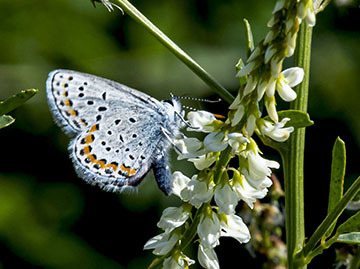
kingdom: Animalia
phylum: Arthropoda
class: Insecta
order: Lepidoptera
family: Lycaenidae
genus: Lycaeides
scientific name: Lycaeides melissa
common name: Melissa blue
